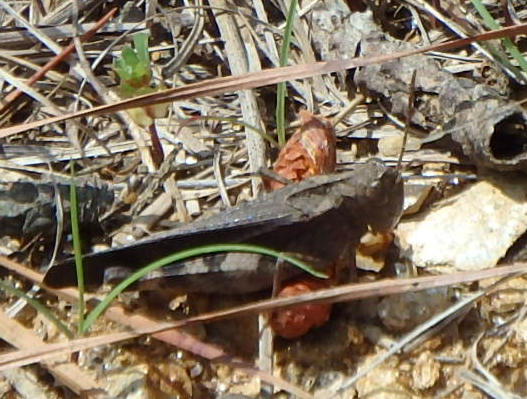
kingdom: Animalia
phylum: Arthropoda
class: Insecta
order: Orthoptera
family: Acrididae
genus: Arphia
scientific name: Arphia sulphurea
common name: Spring yellow-winged locust
